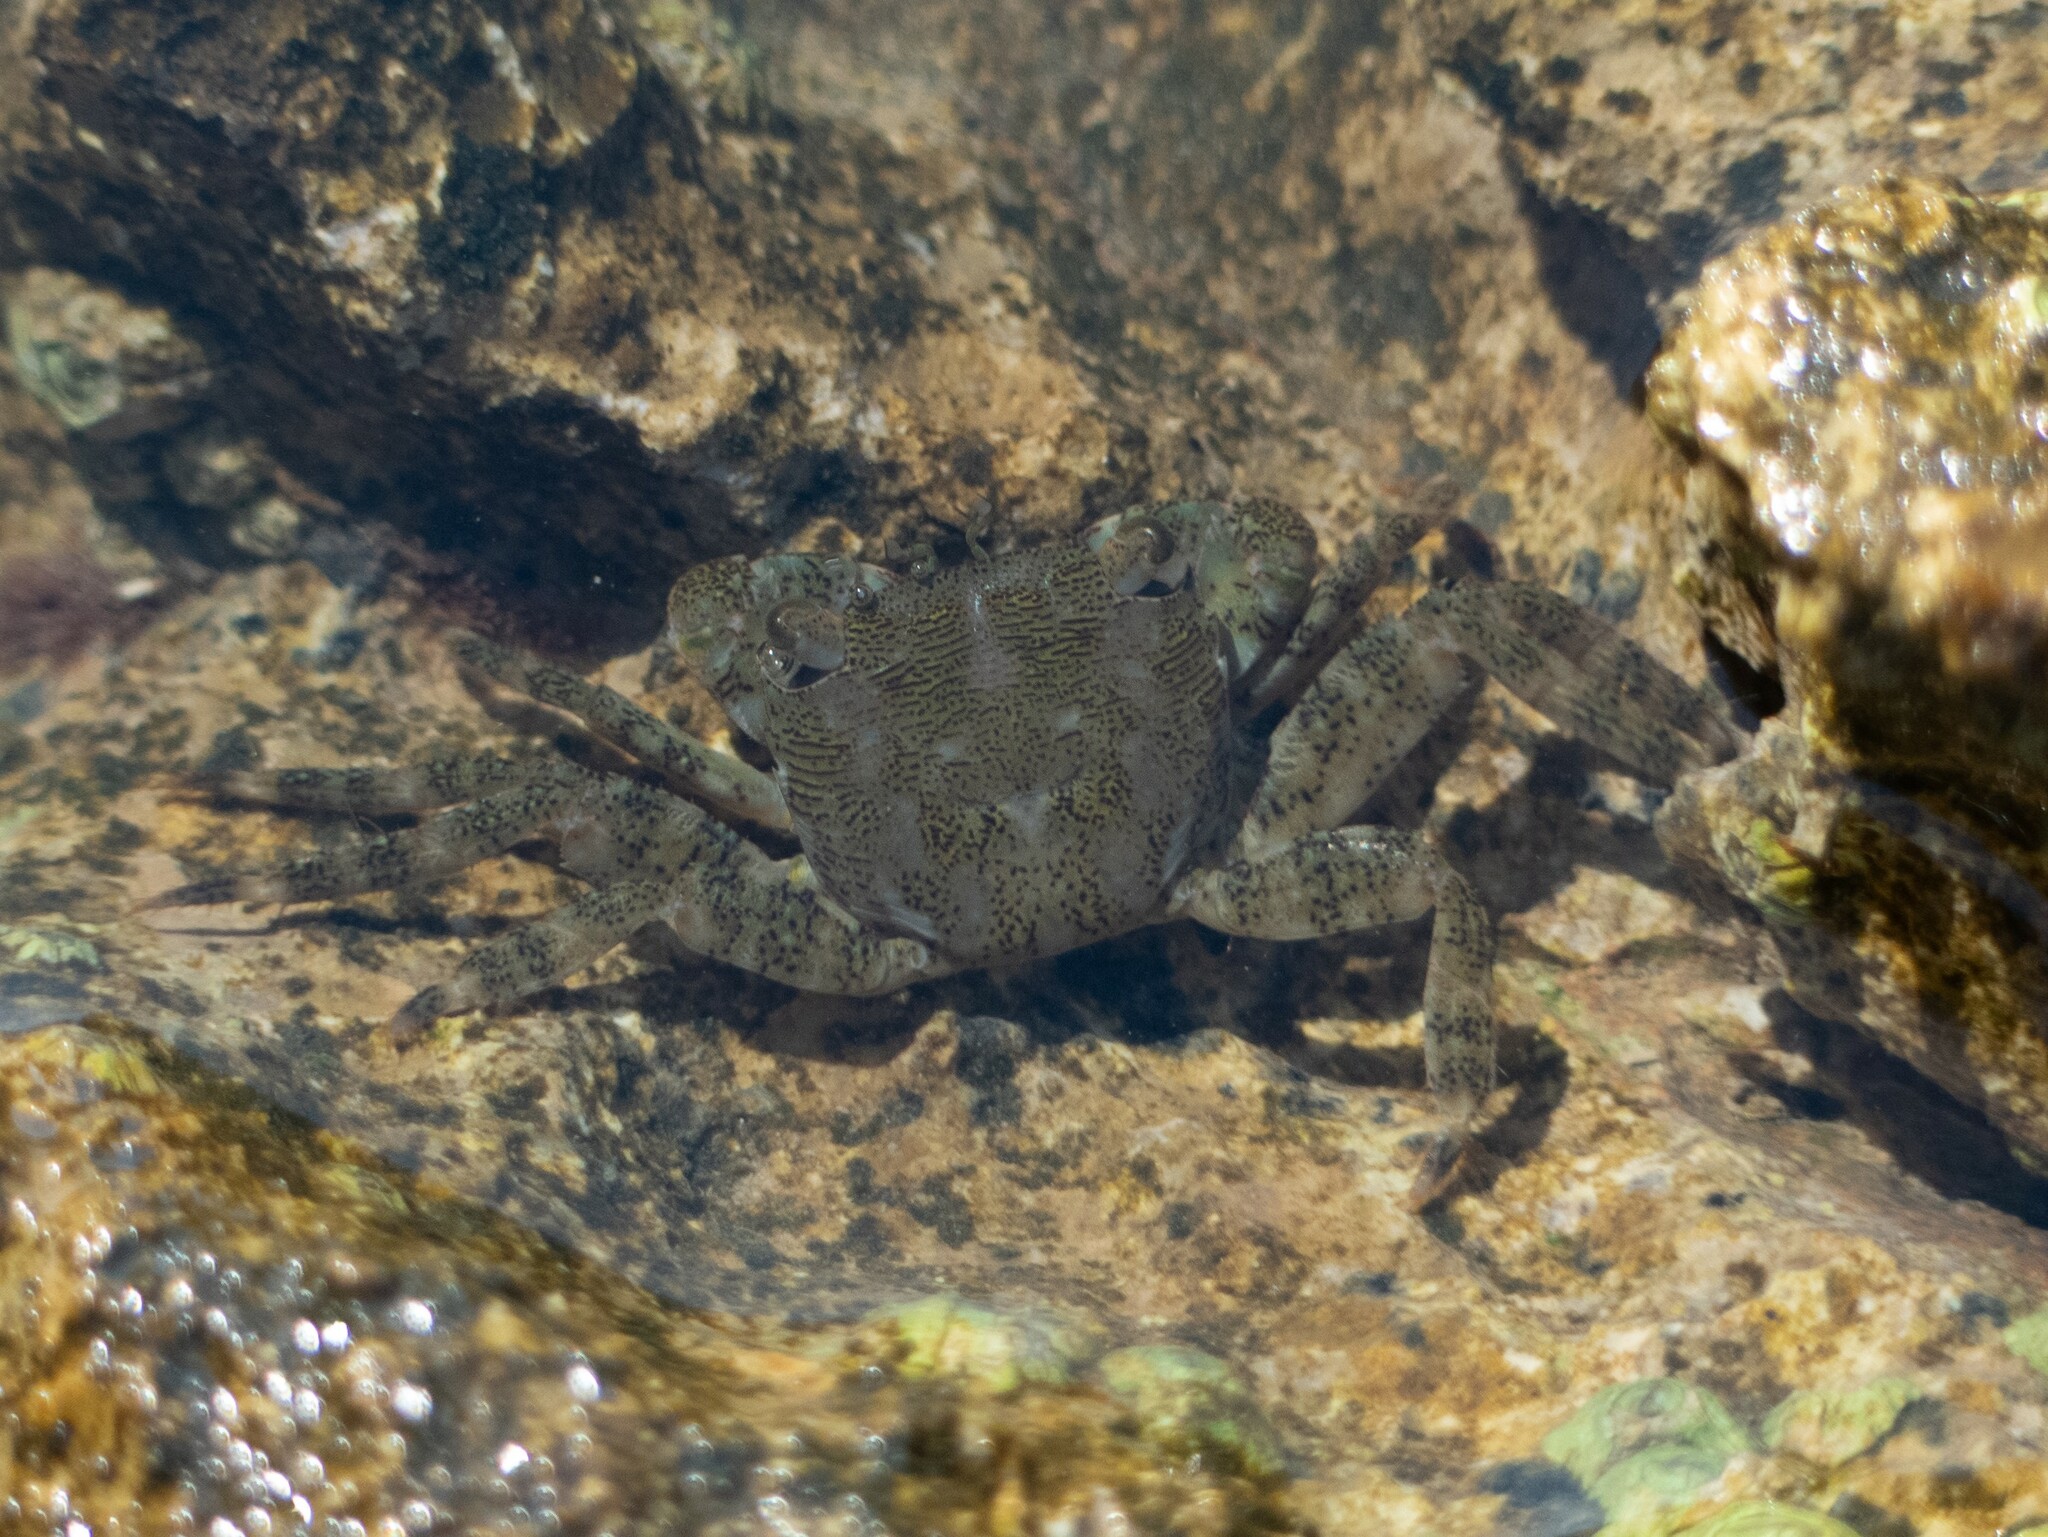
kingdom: Animalia
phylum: Arthropoda
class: Malacostraca
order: Decapoda
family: Grapsidae
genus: Pachygrapsus
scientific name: Pachygrapsus marmoratus
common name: Marbled rock crab
